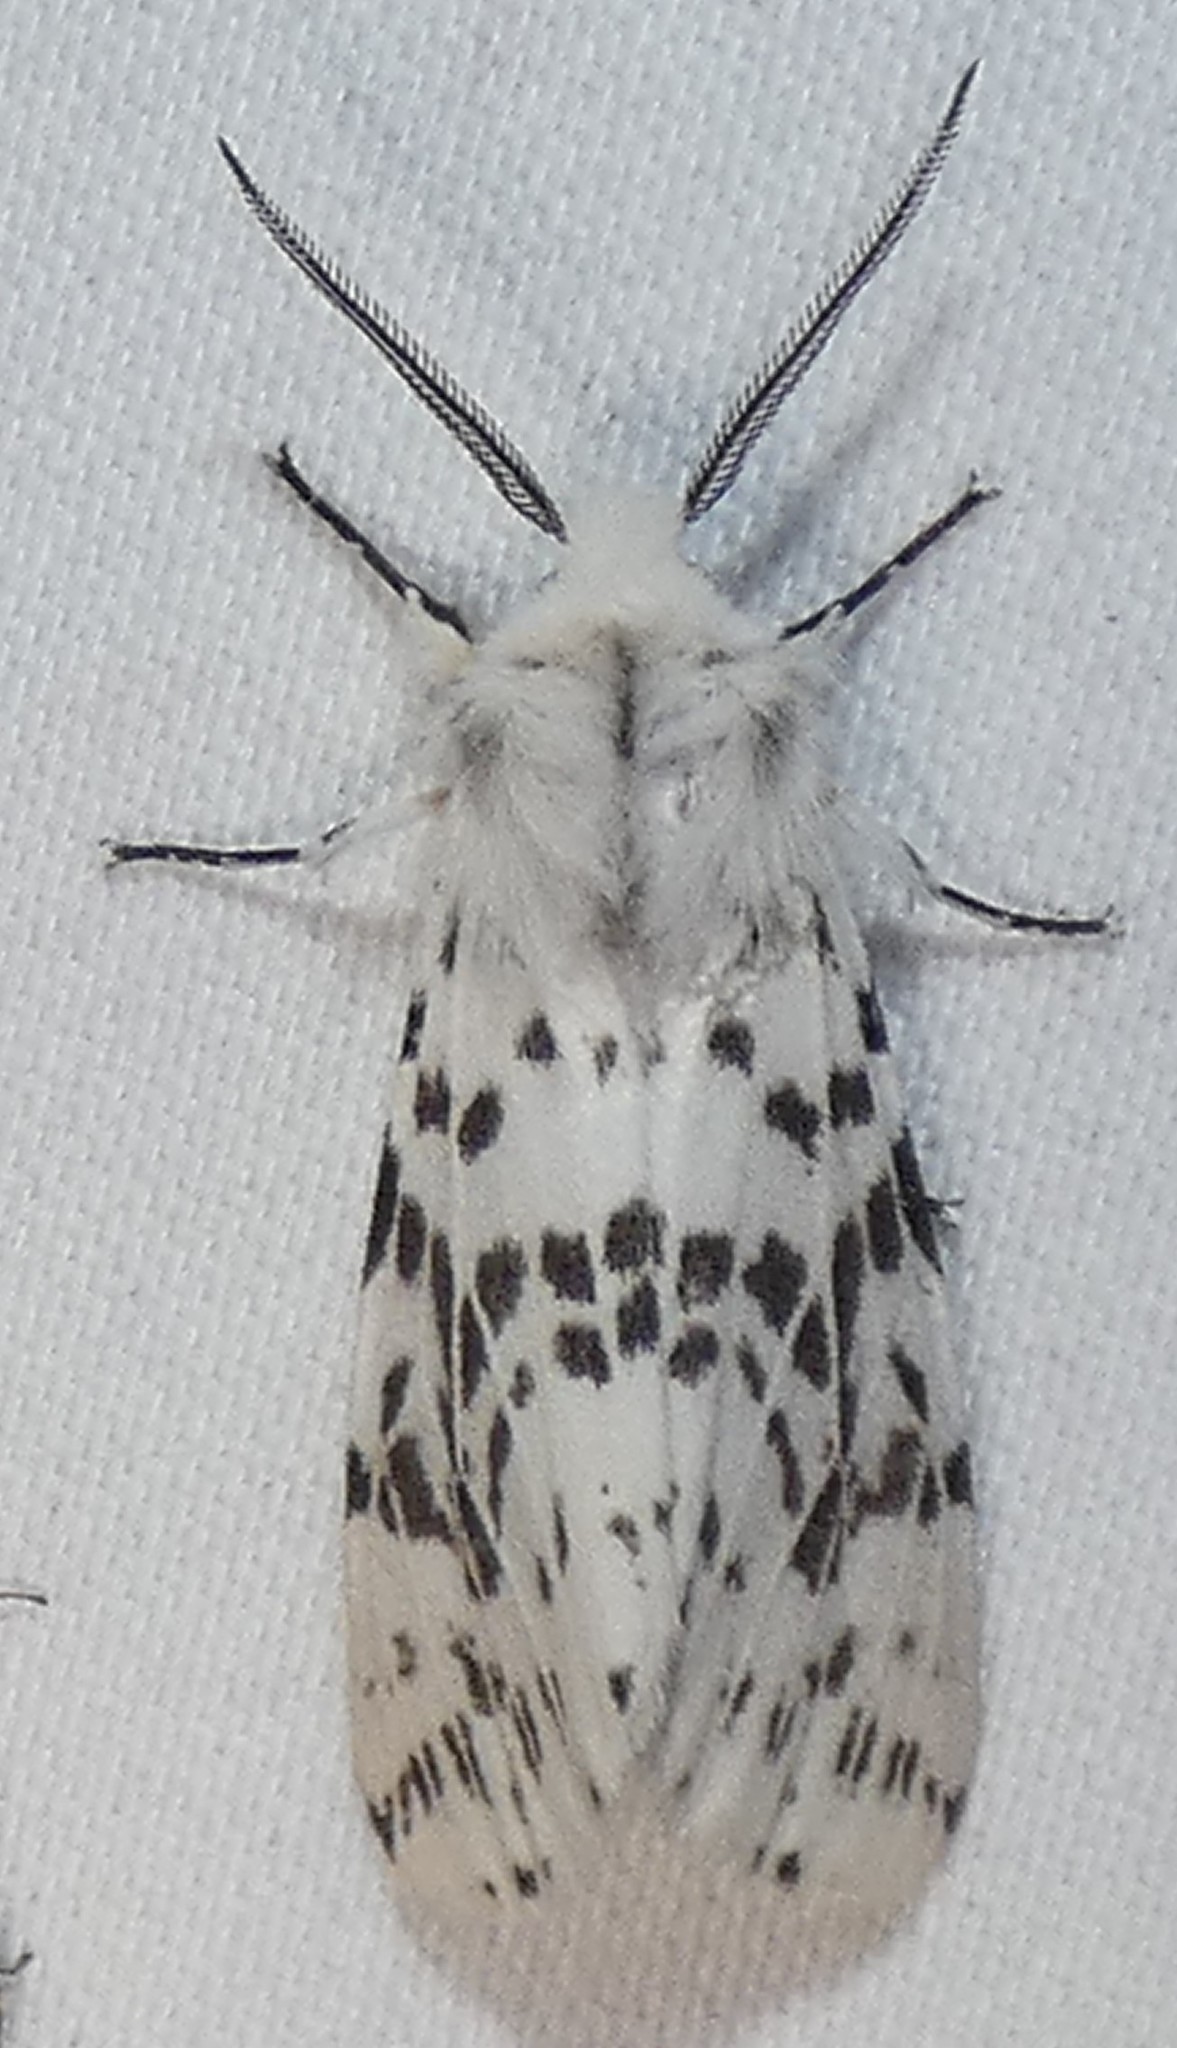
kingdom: Animalia
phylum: Arthropoda
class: Insecta
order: Lepidoptera
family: Erebidae
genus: Hyphantria
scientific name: Hyphantria cunea
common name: American white moth
